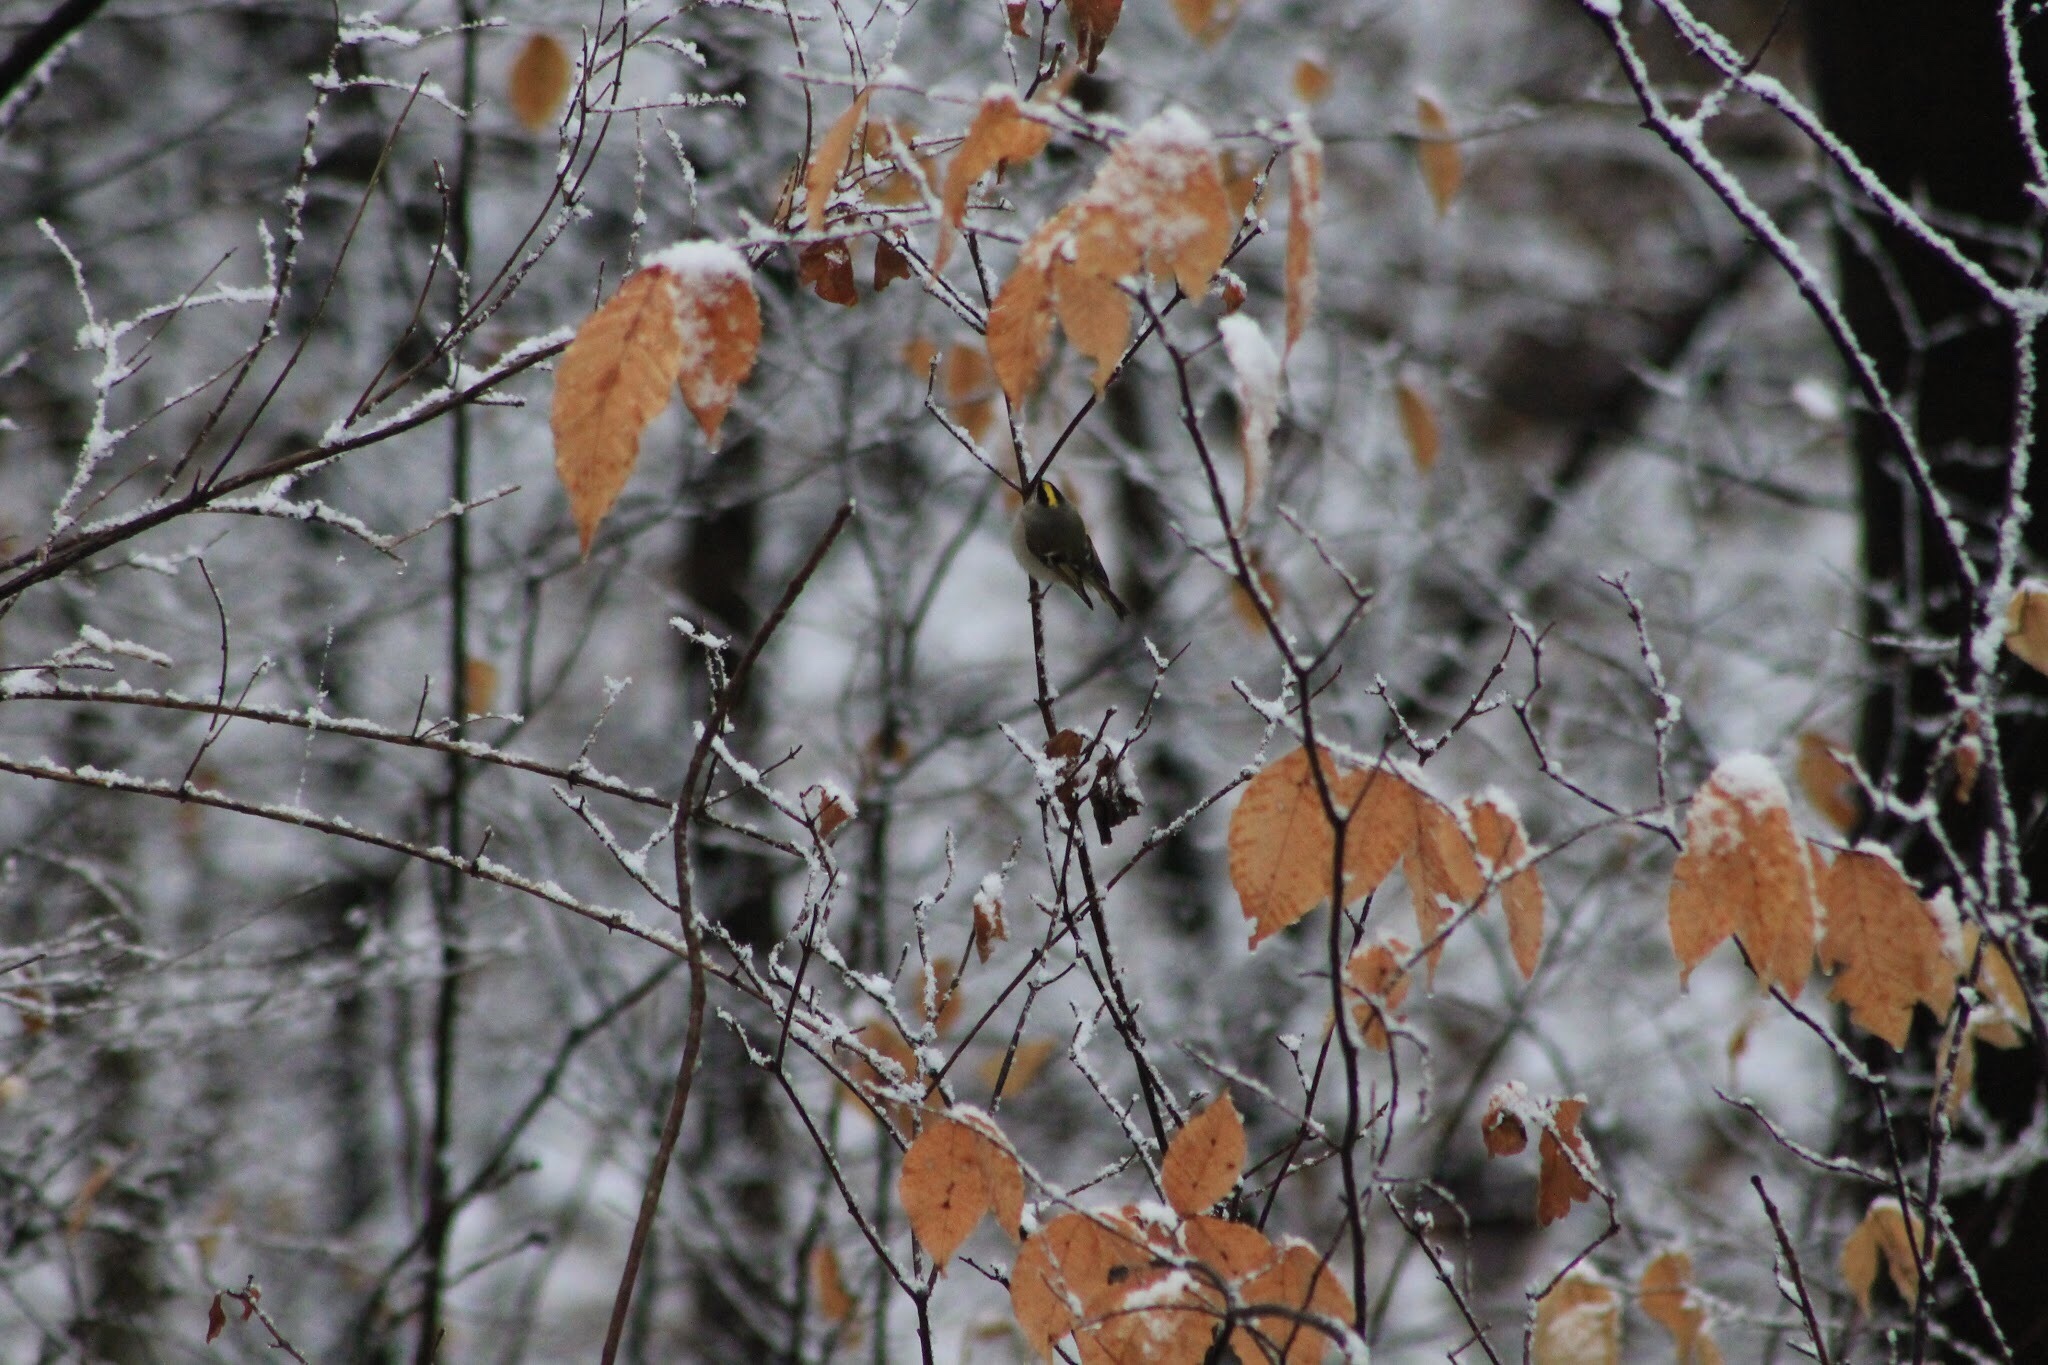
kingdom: Animalia
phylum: Chordata
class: Aves
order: Passeriformes
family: Regulidae
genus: Regulus
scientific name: Regulus satrapa
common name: Golden-crowned kinglet
